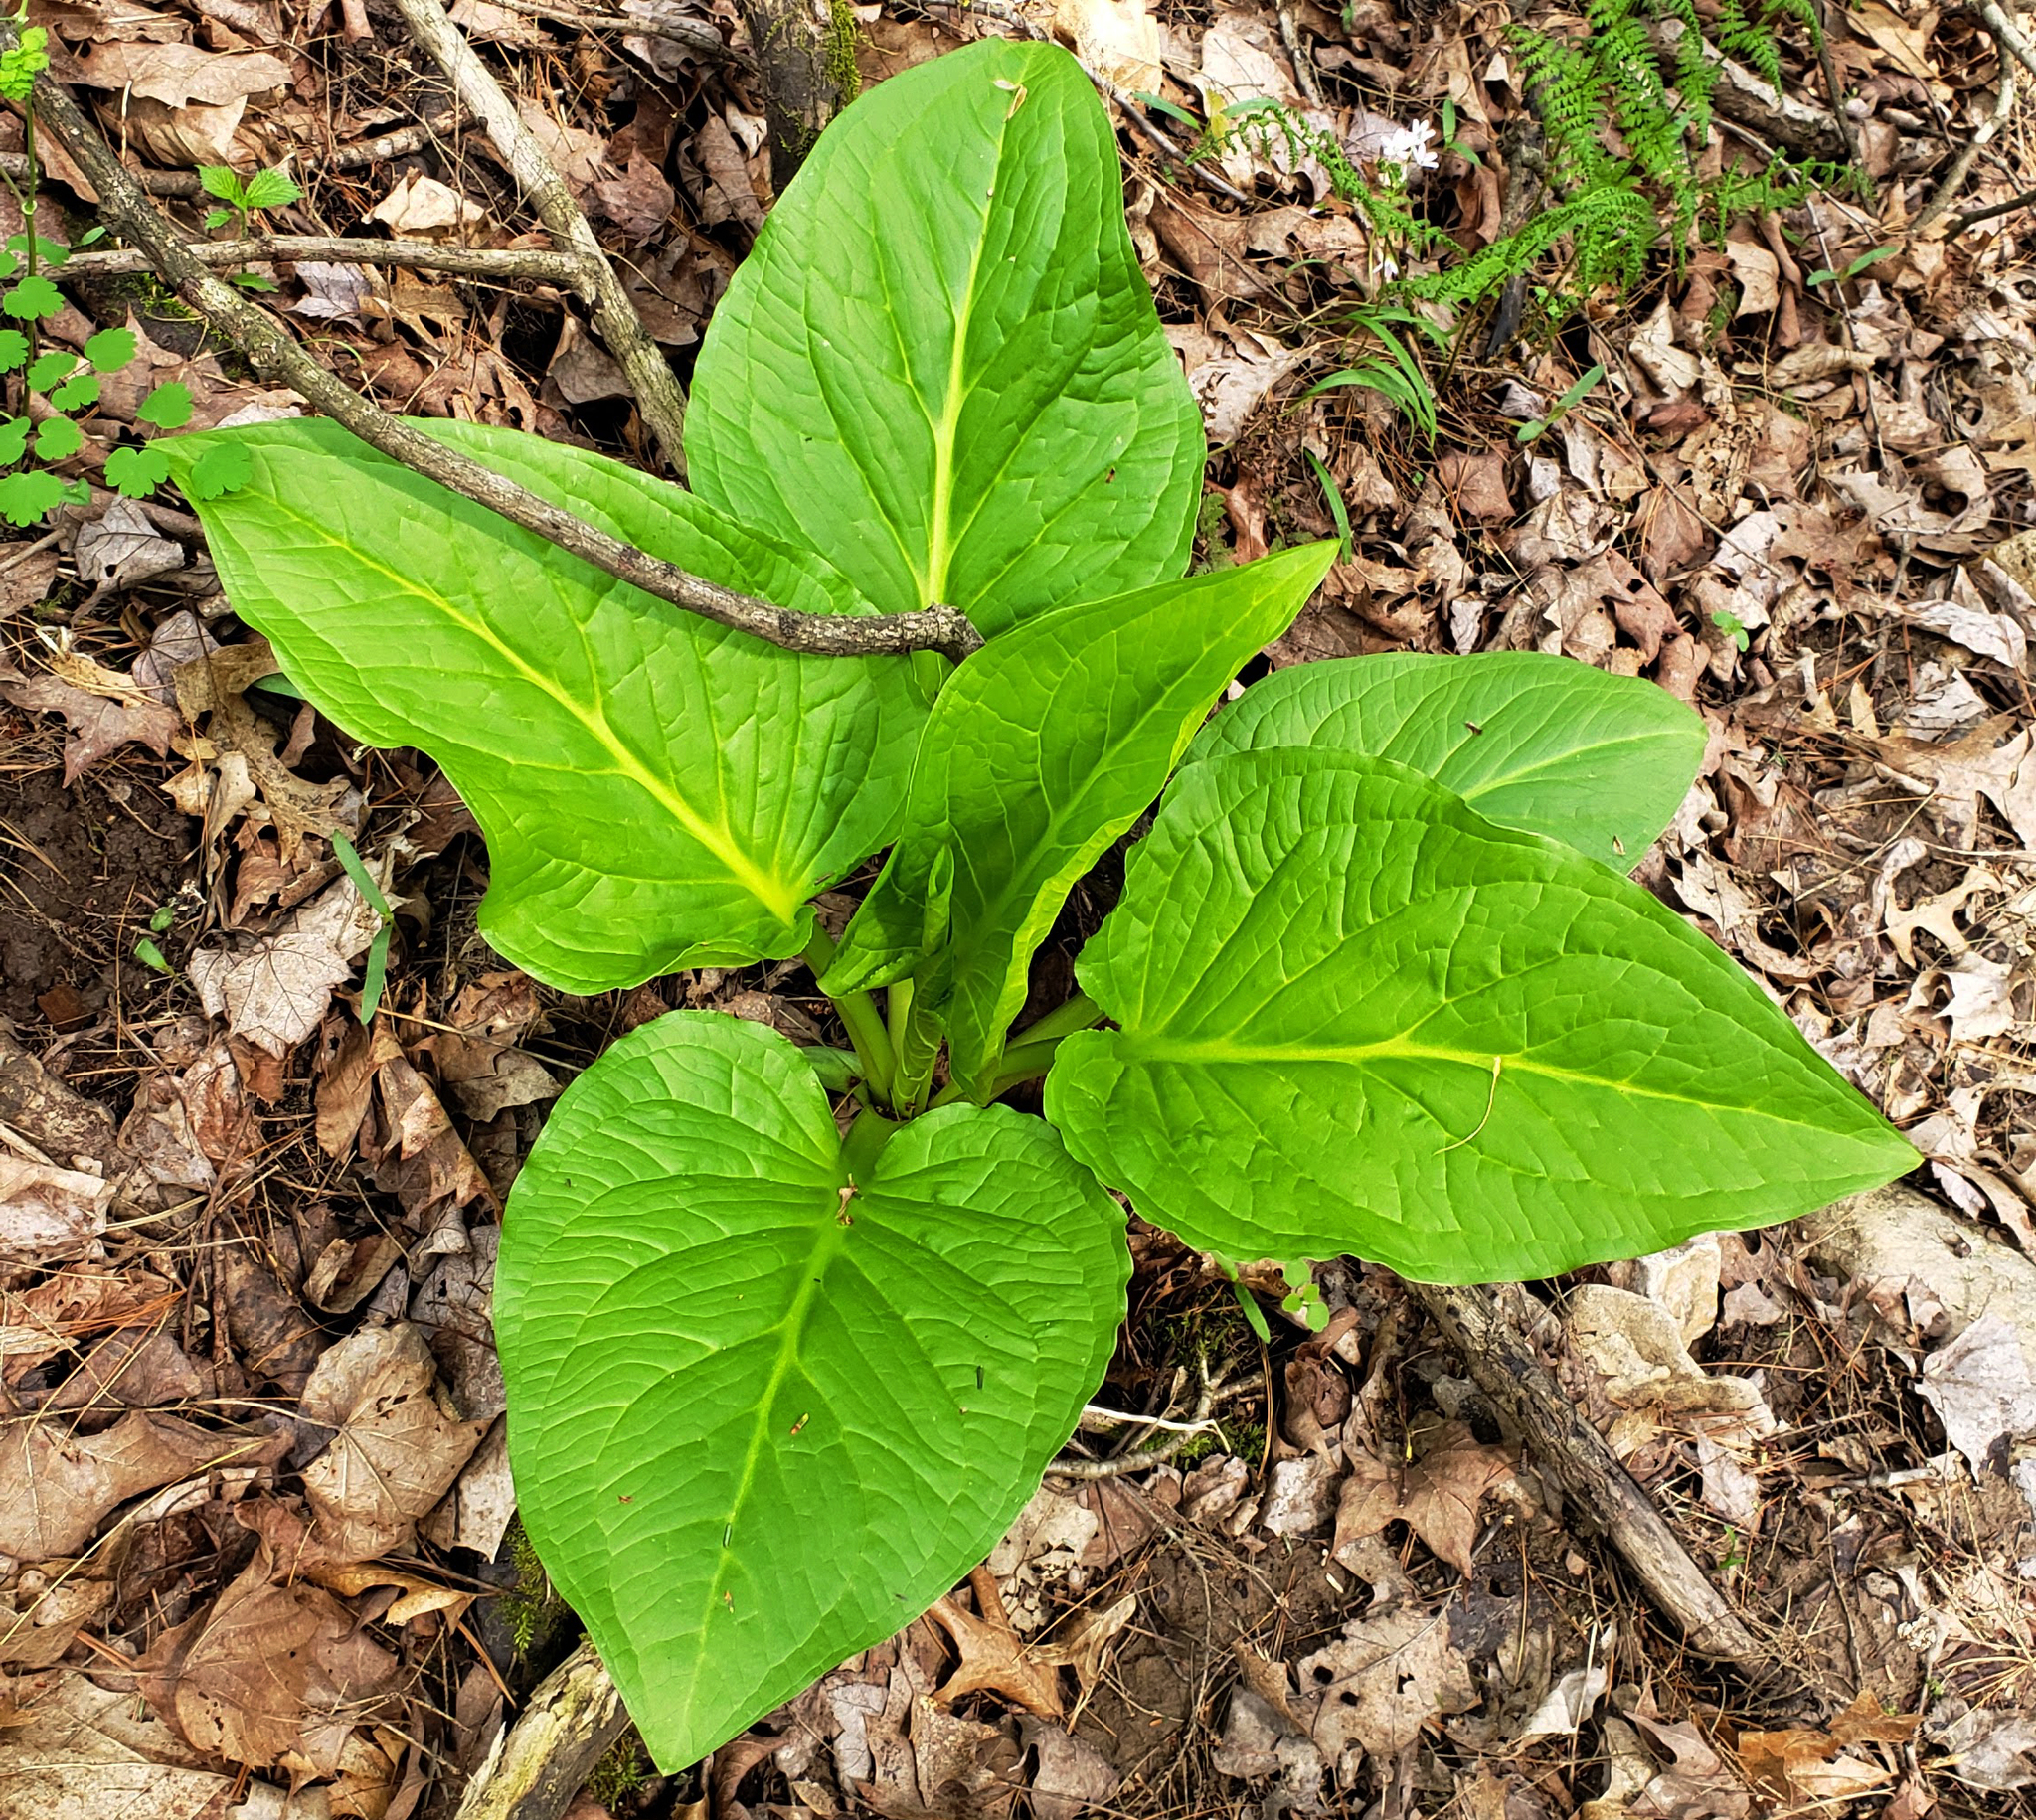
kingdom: Plantae
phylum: Tracheophyta
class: Liliopsida
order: Alismatales
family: Araceae
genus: Symplocarpus
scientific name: Symplocarpus foetidus
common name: Eastern skunk cabbage
